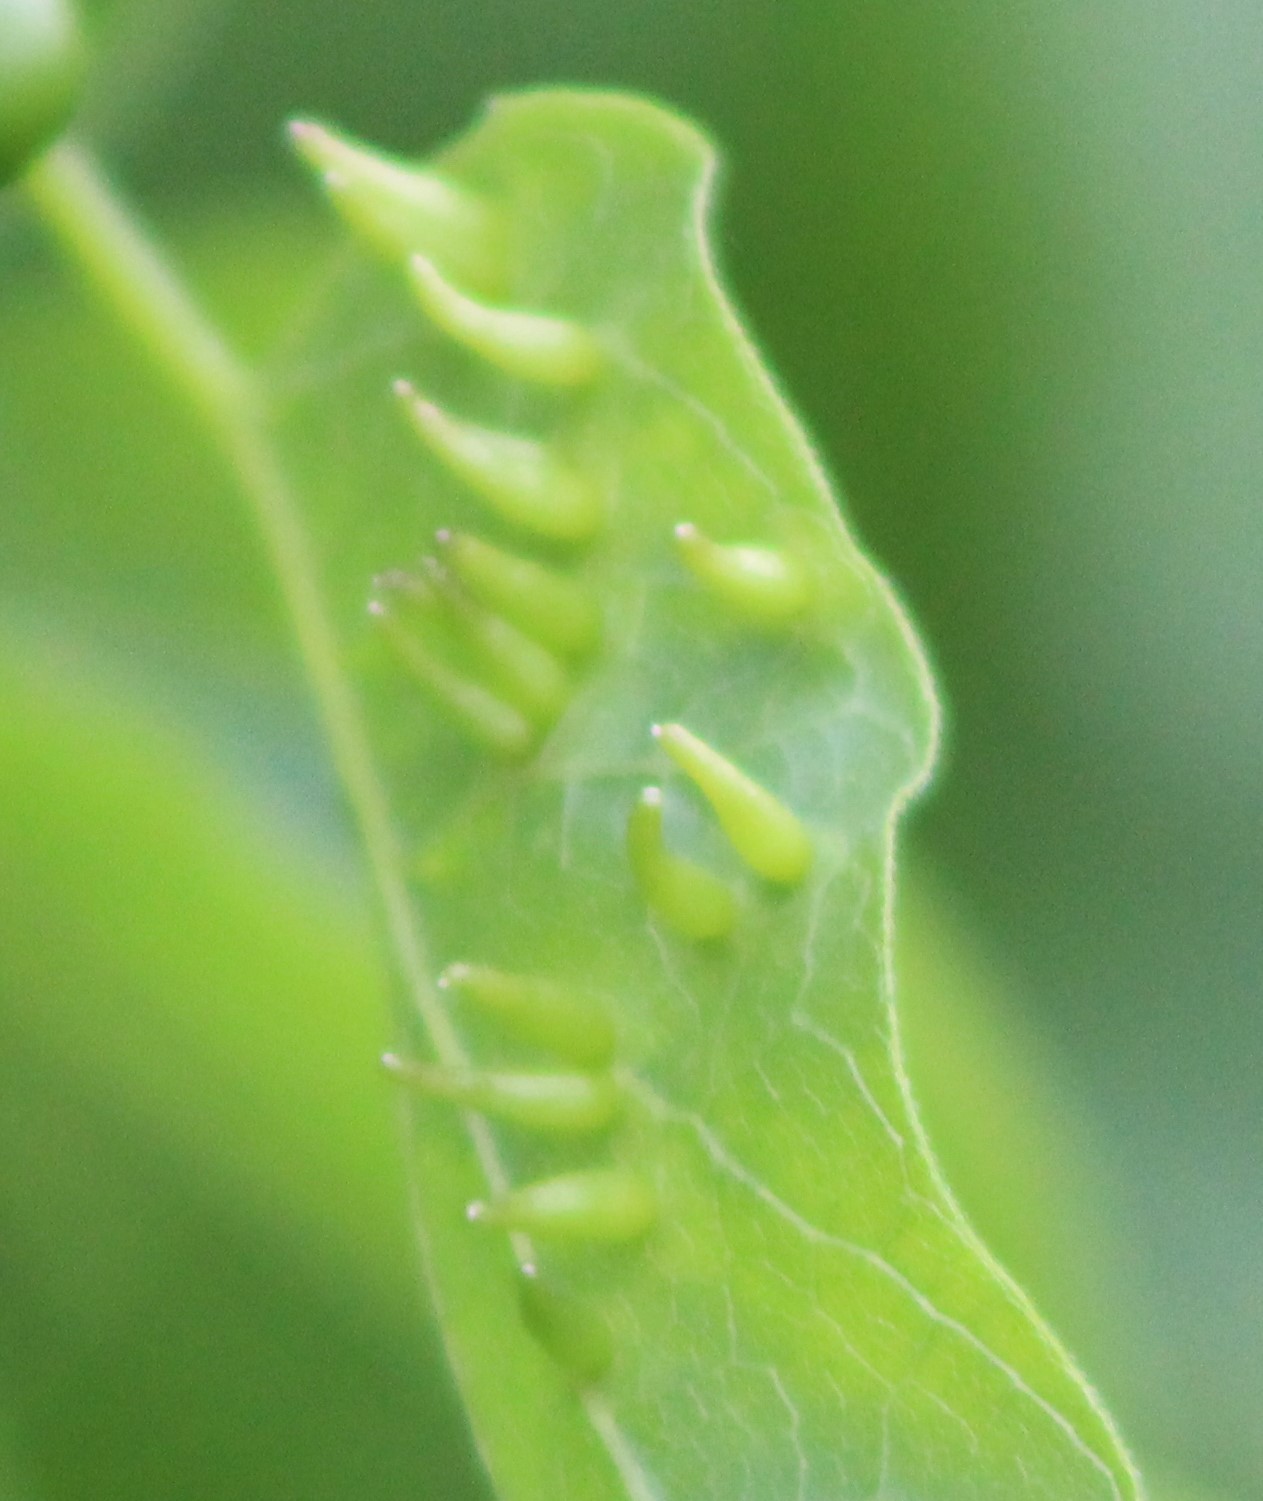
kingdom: Animalia
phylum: Arthropoda
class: Insecta
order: Diptera
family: Cecidomyiidae
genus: Celticecis
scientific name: Celticecis subulata
